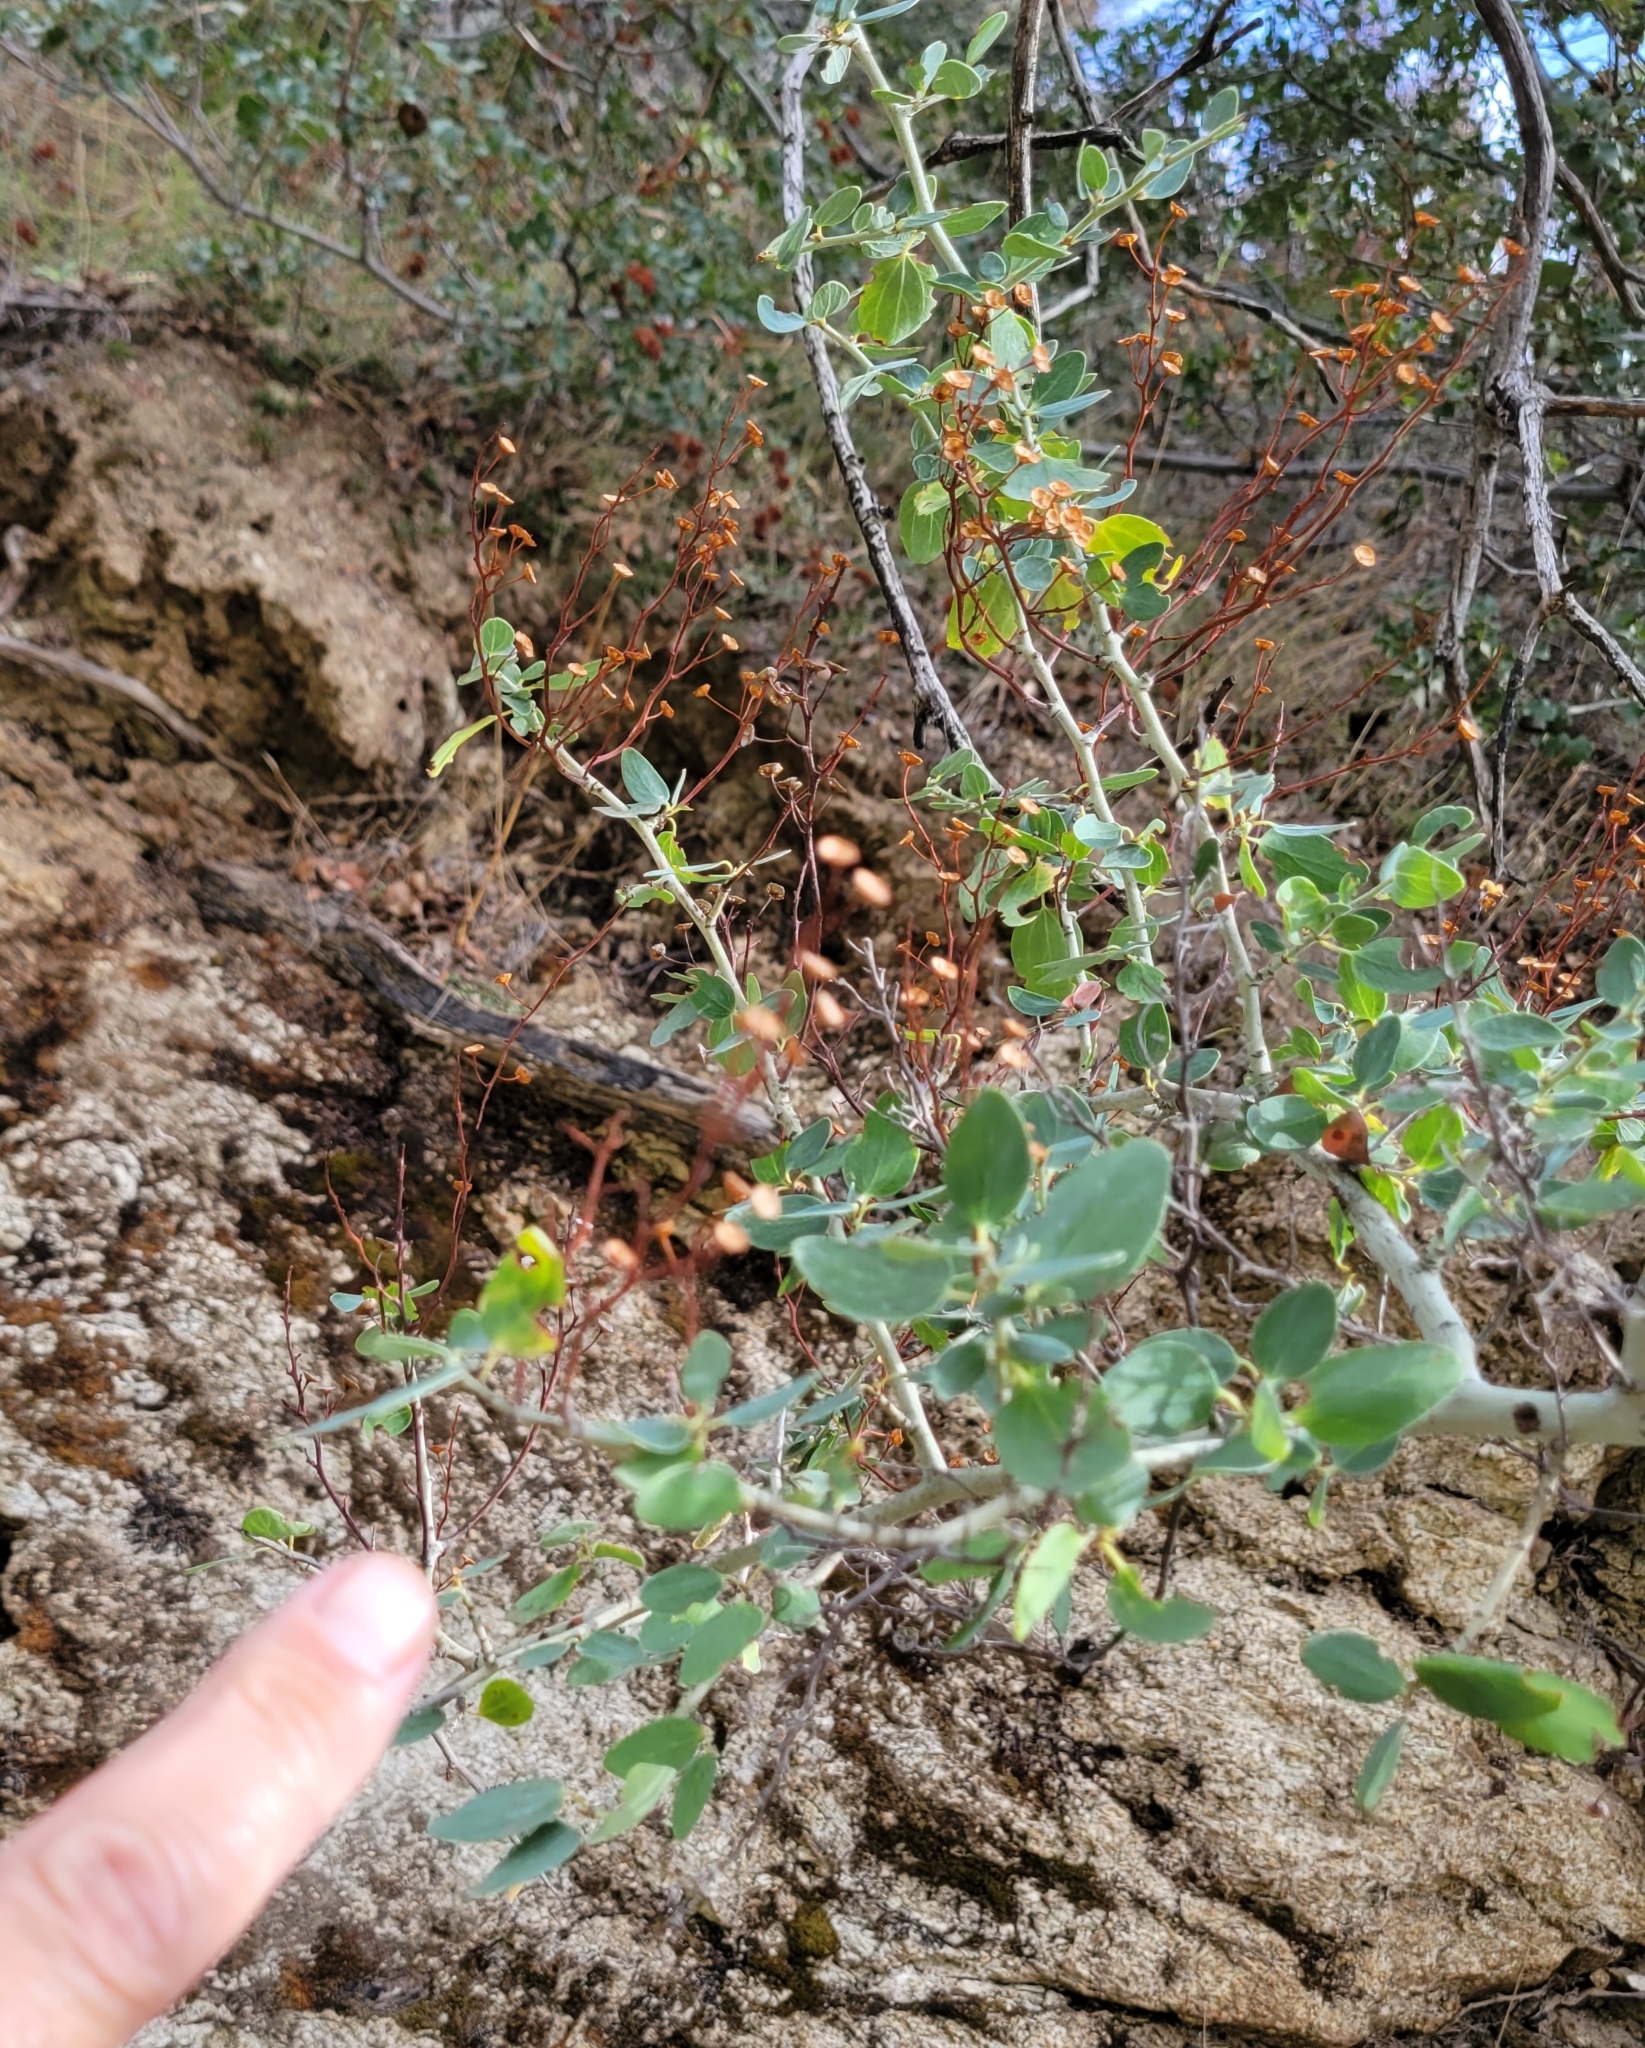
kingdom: Plantae
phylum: Tracheophyta
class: Magnoliopsida
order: Rosales
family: Rhamnaceae
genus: Ceanothus
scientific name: Ceanothus leucodermis
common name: Chaparral whitethorn
